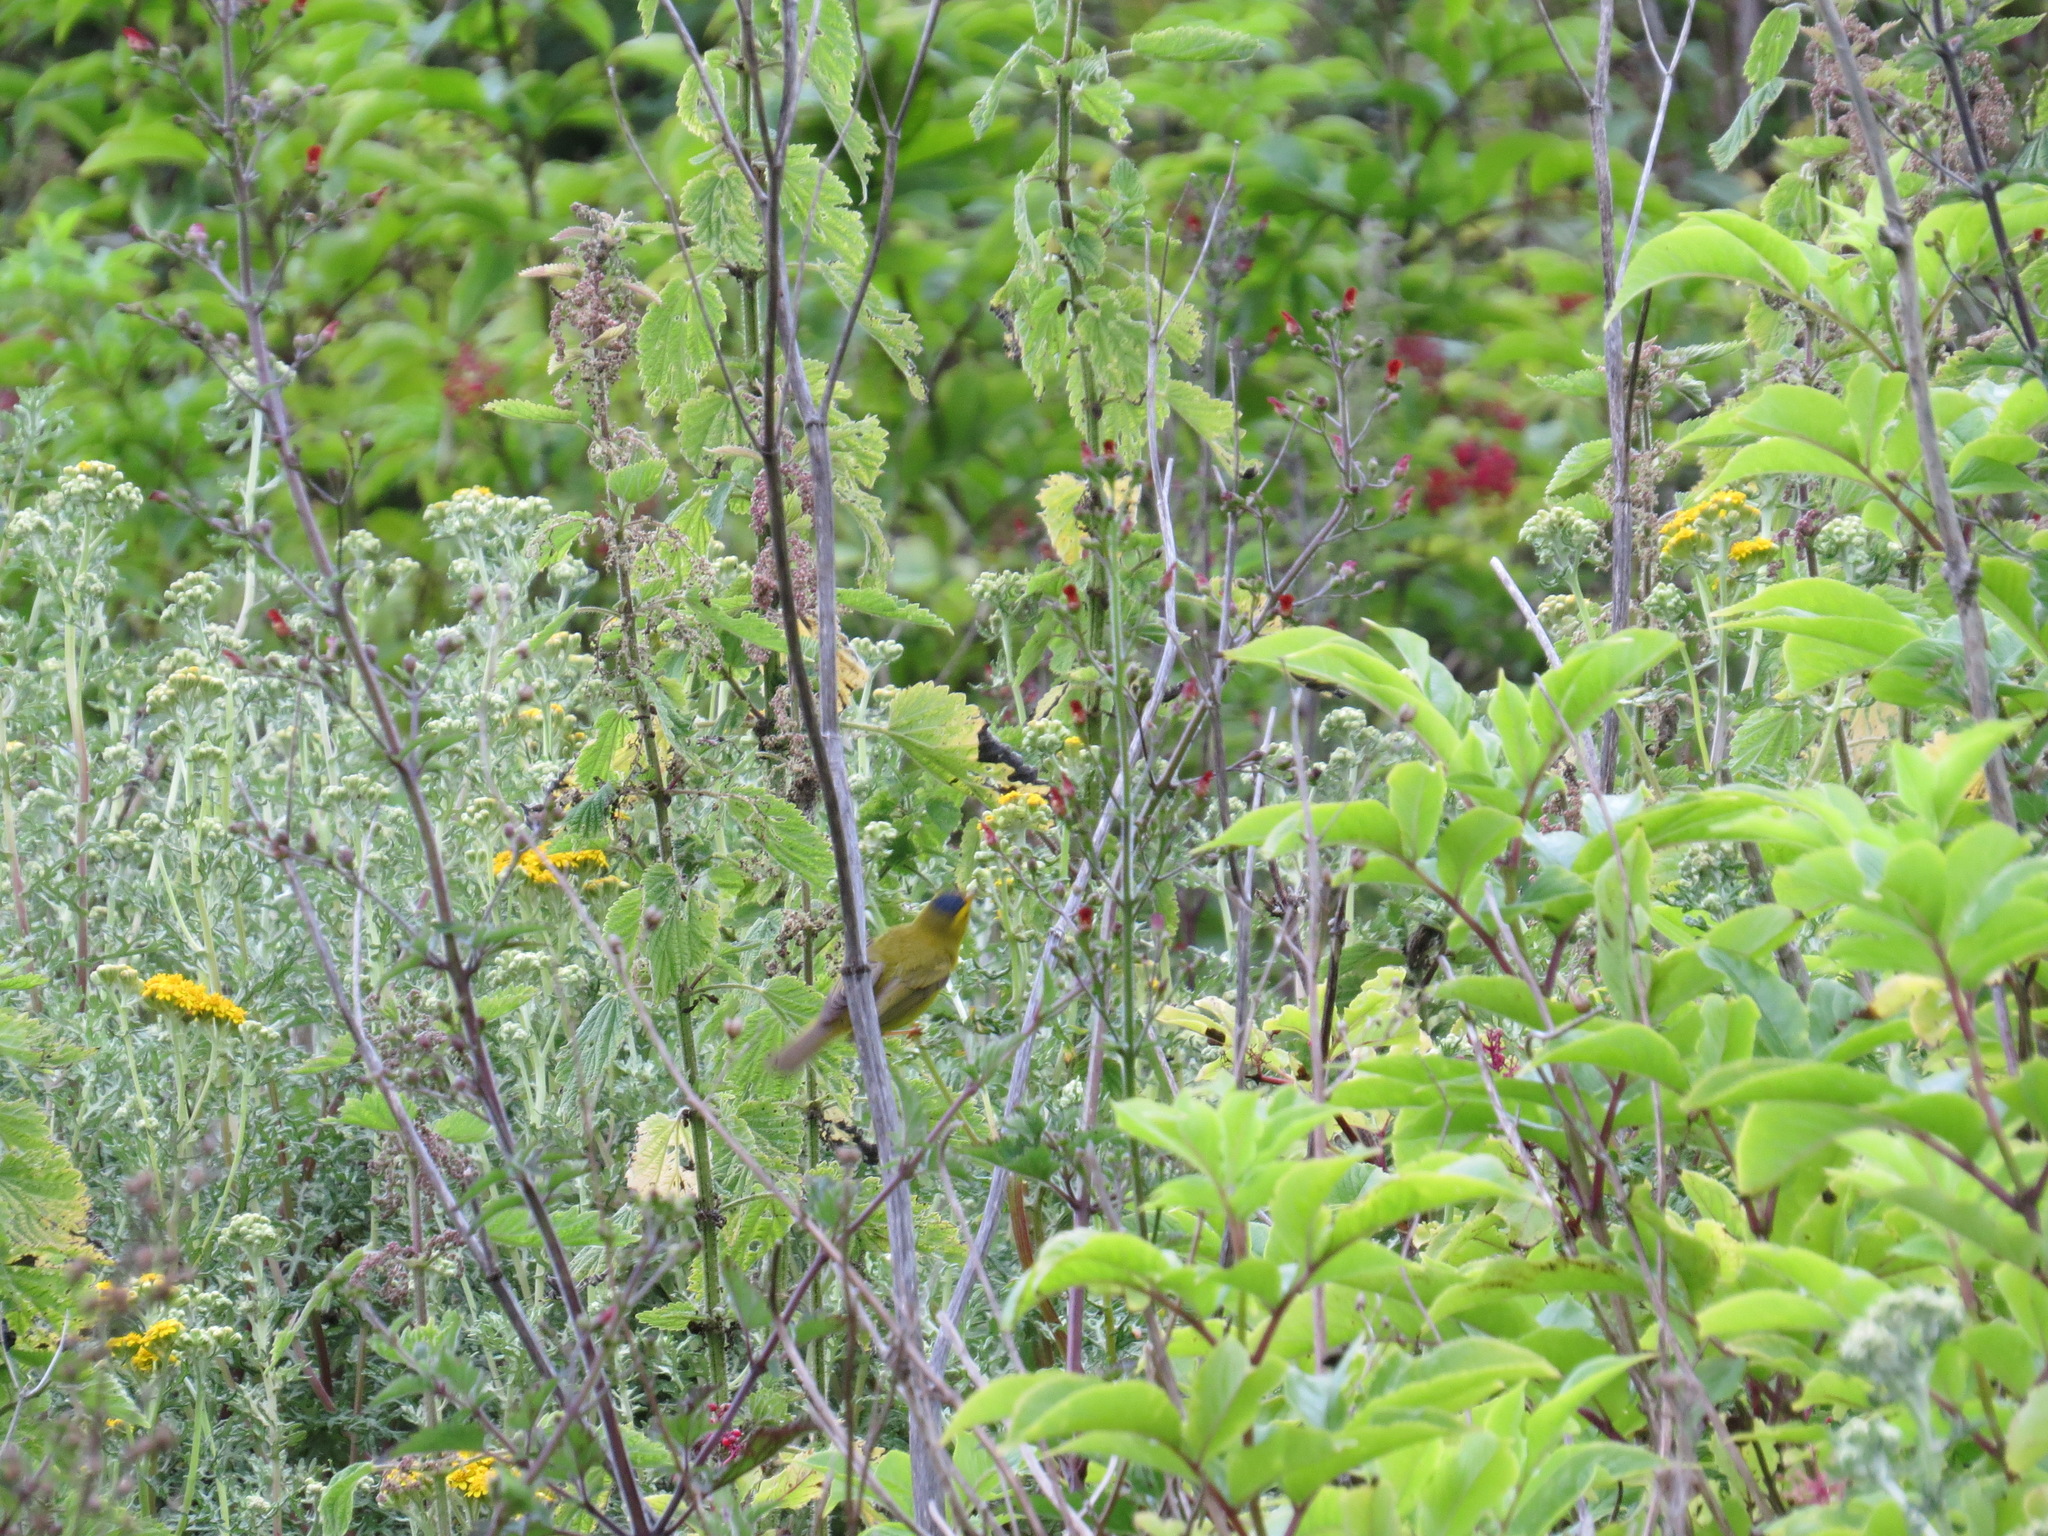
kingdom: Animalia
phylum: Chordata
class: Aves
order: Passeriformes
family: Parulidae
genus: Cardellina
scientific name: Cardellina pusilla
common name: Wilson's warbler
